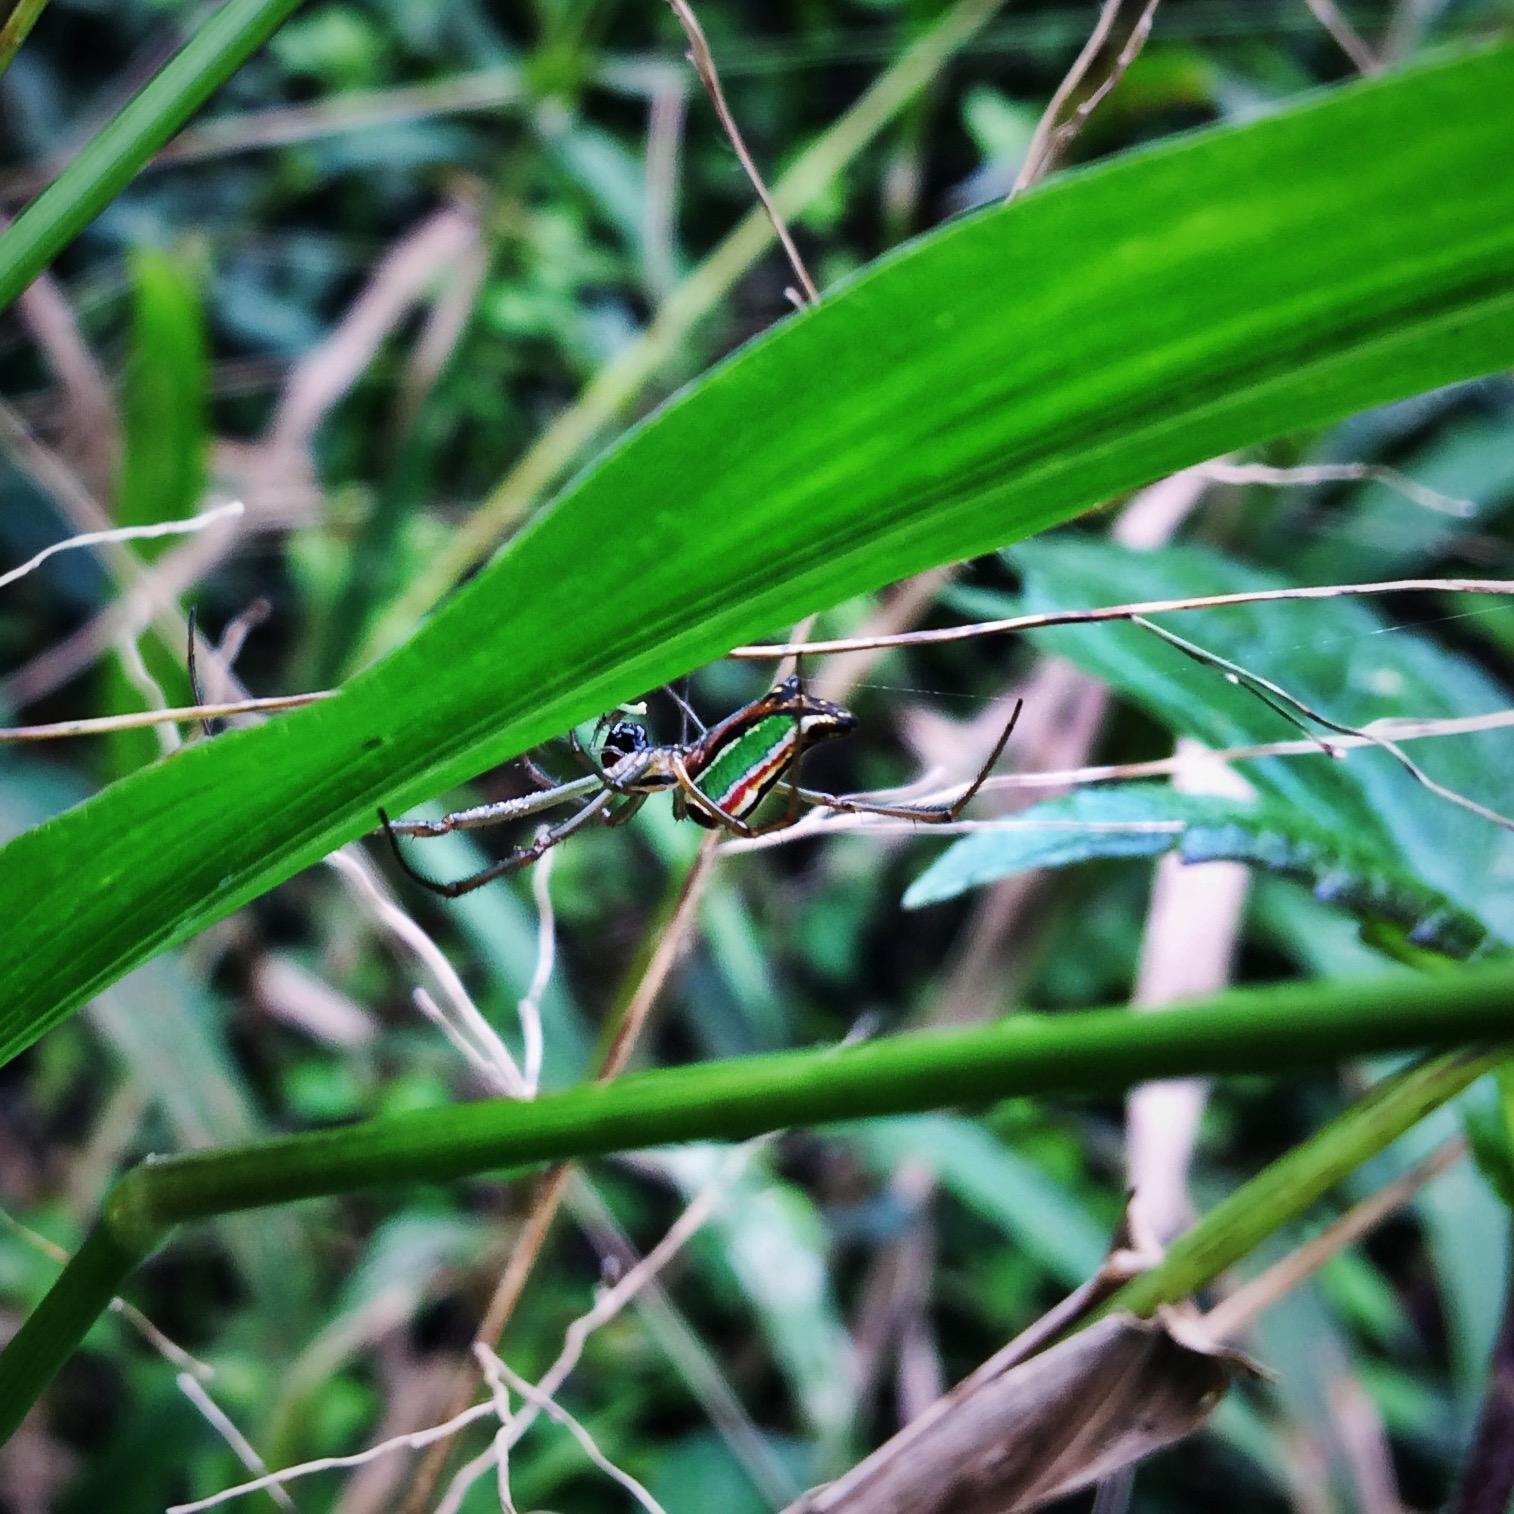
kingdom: Animalia
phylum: Arthropoda
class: Arachnida
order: Araneae
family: Tetragnathidae
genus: Leucauge
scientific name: Leucauge levanderi
